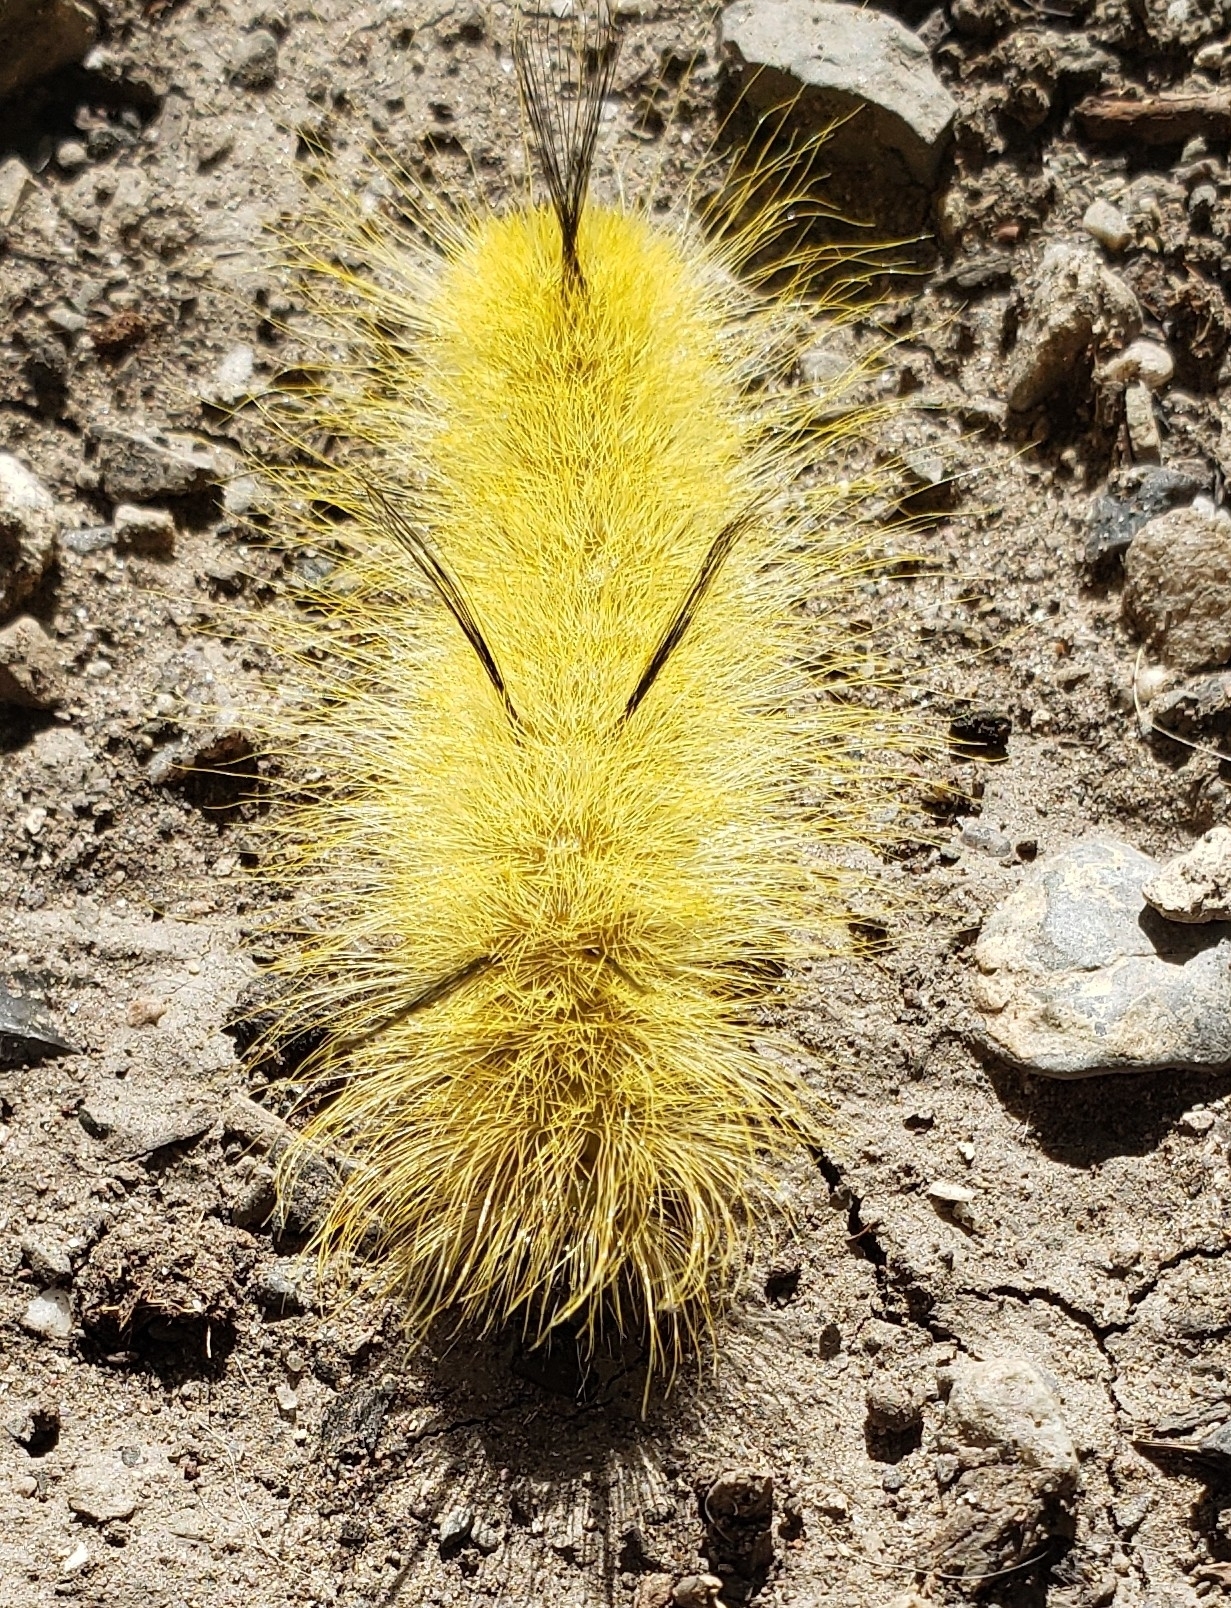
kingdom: Animalia
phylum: Arthropoda
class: Insecta
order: Lepidoptera
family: Noctuidae
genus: Acronicta
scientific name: Acronicta americana
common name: American dagger
